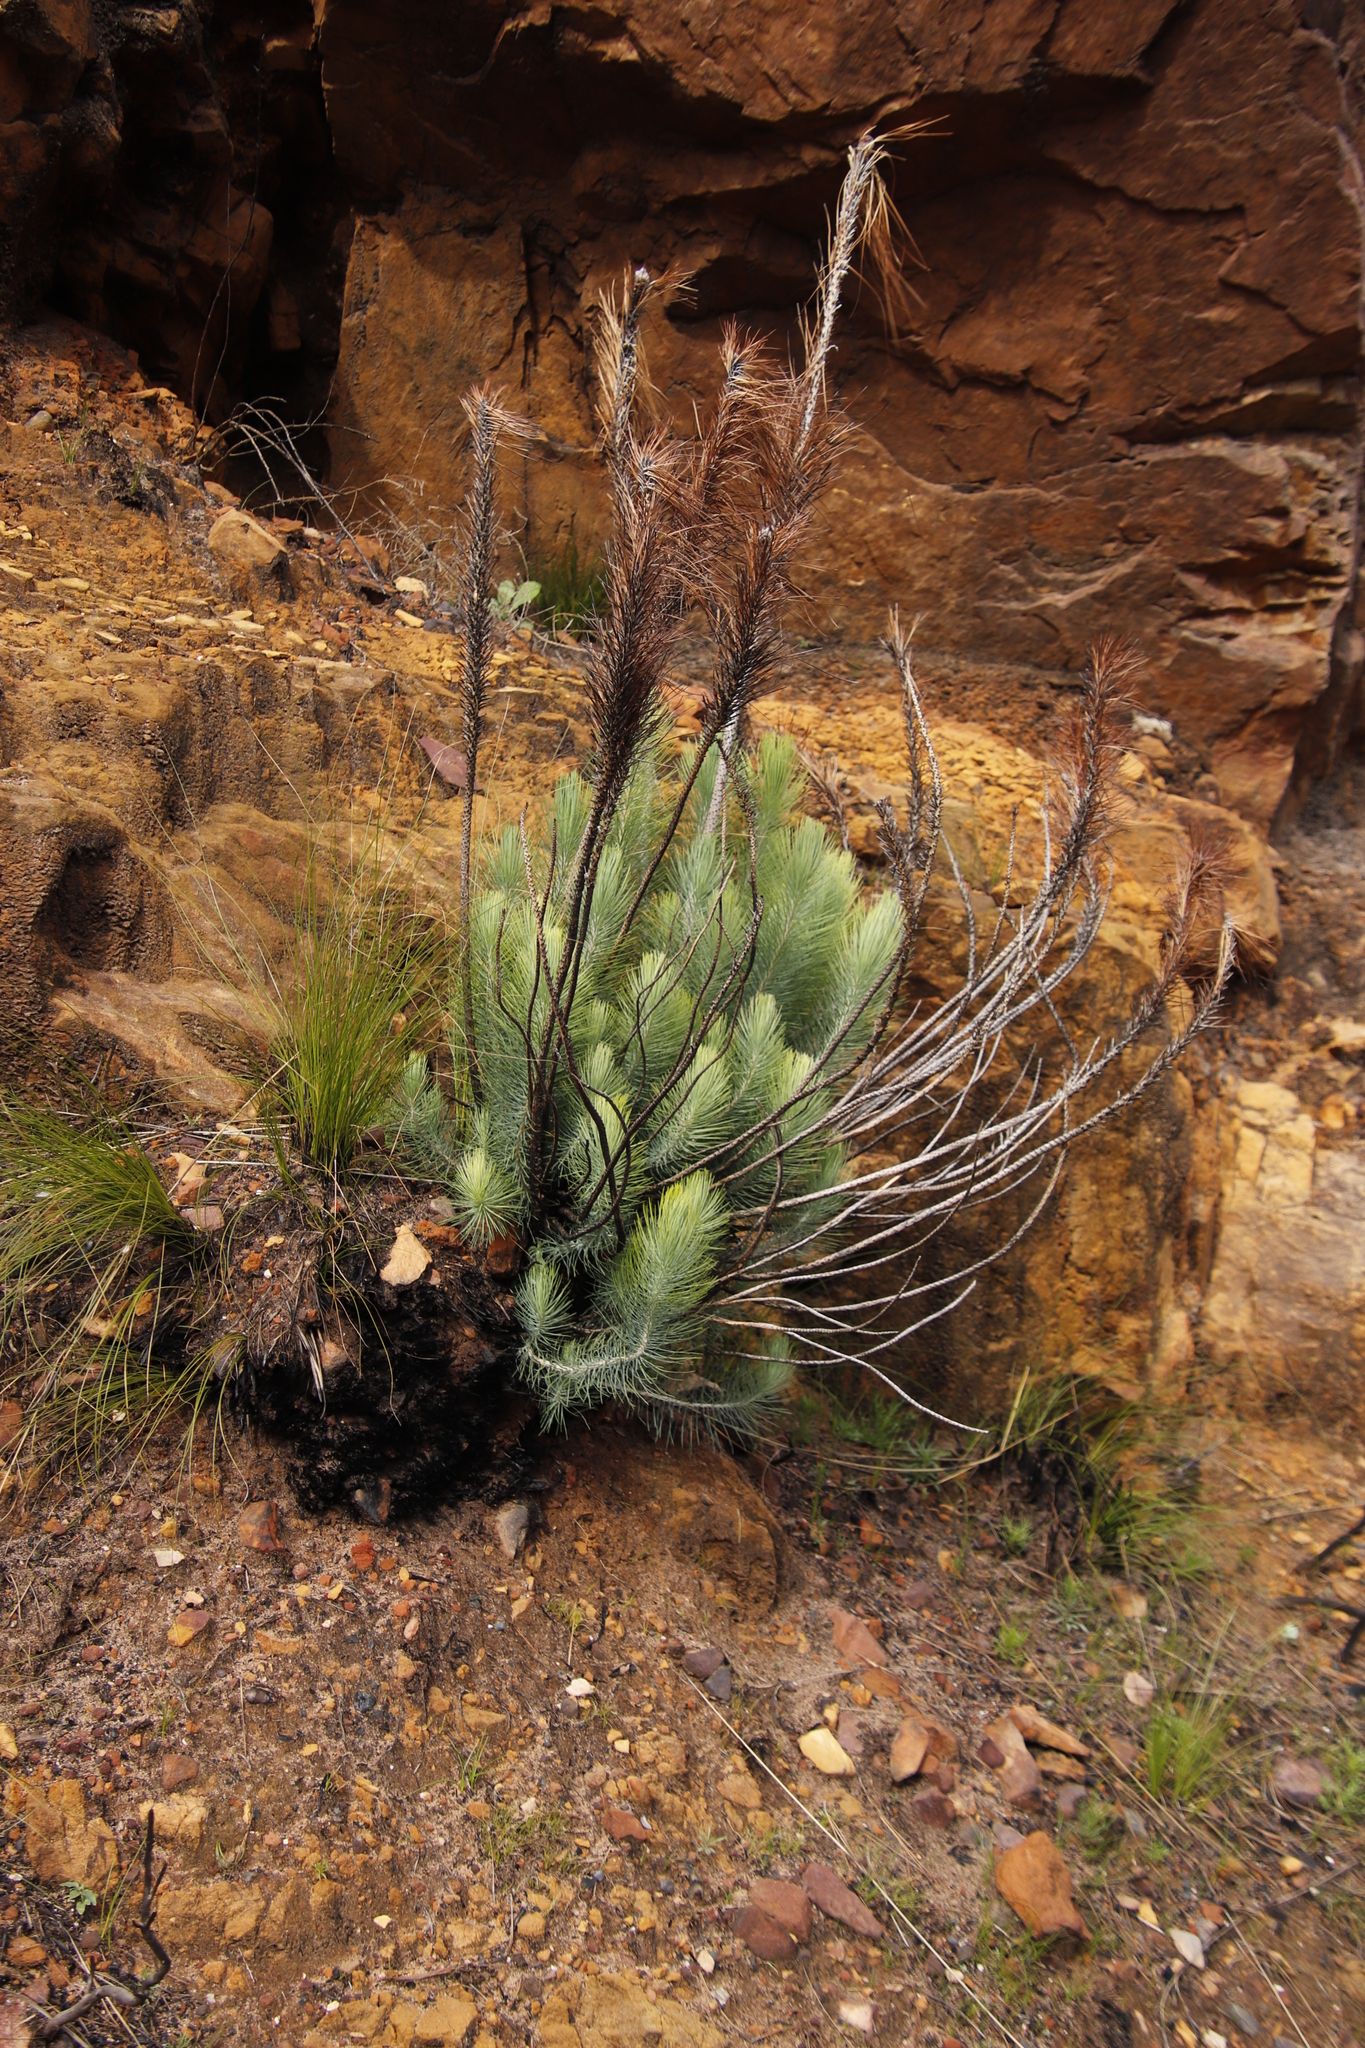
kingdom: Plantae
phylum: Tracheophyta
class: Pinopsida
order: Pinales
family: Pinaceae
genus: Pinus
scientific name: Pinus canariensis
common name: Canary islands pine
